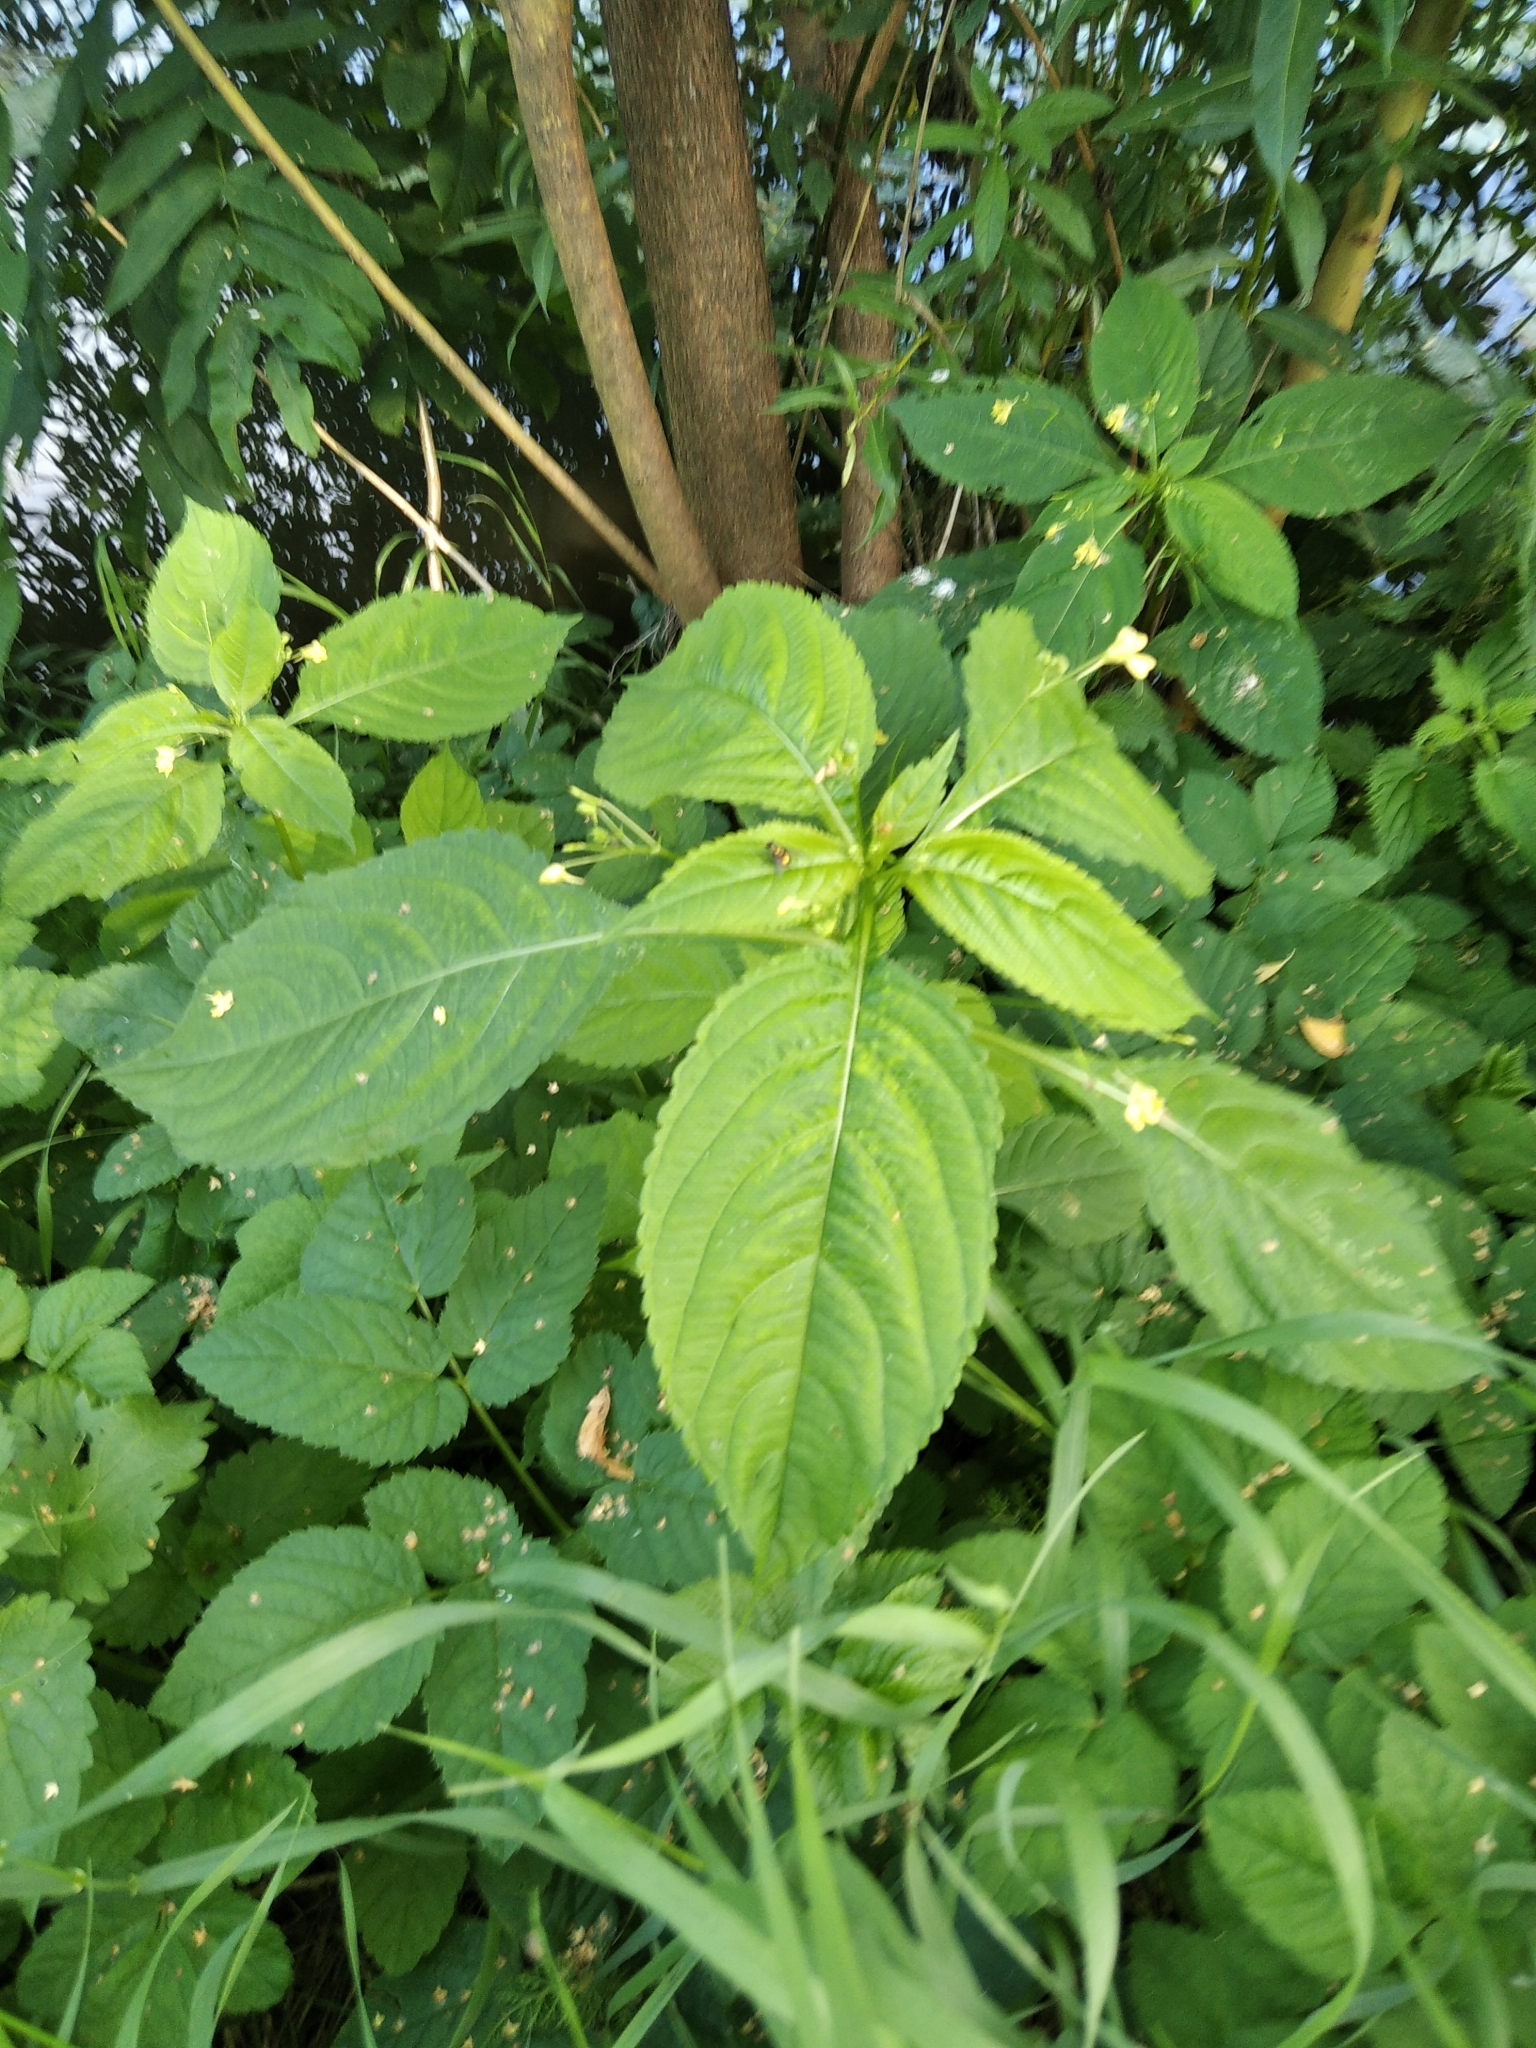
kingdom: Plantae
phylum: Tracheophyta
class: Magnoliopsida
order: Ericales
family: Balsaminaceae
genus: Impatiens
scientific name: Impatiens parviflora
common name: Small balsam
